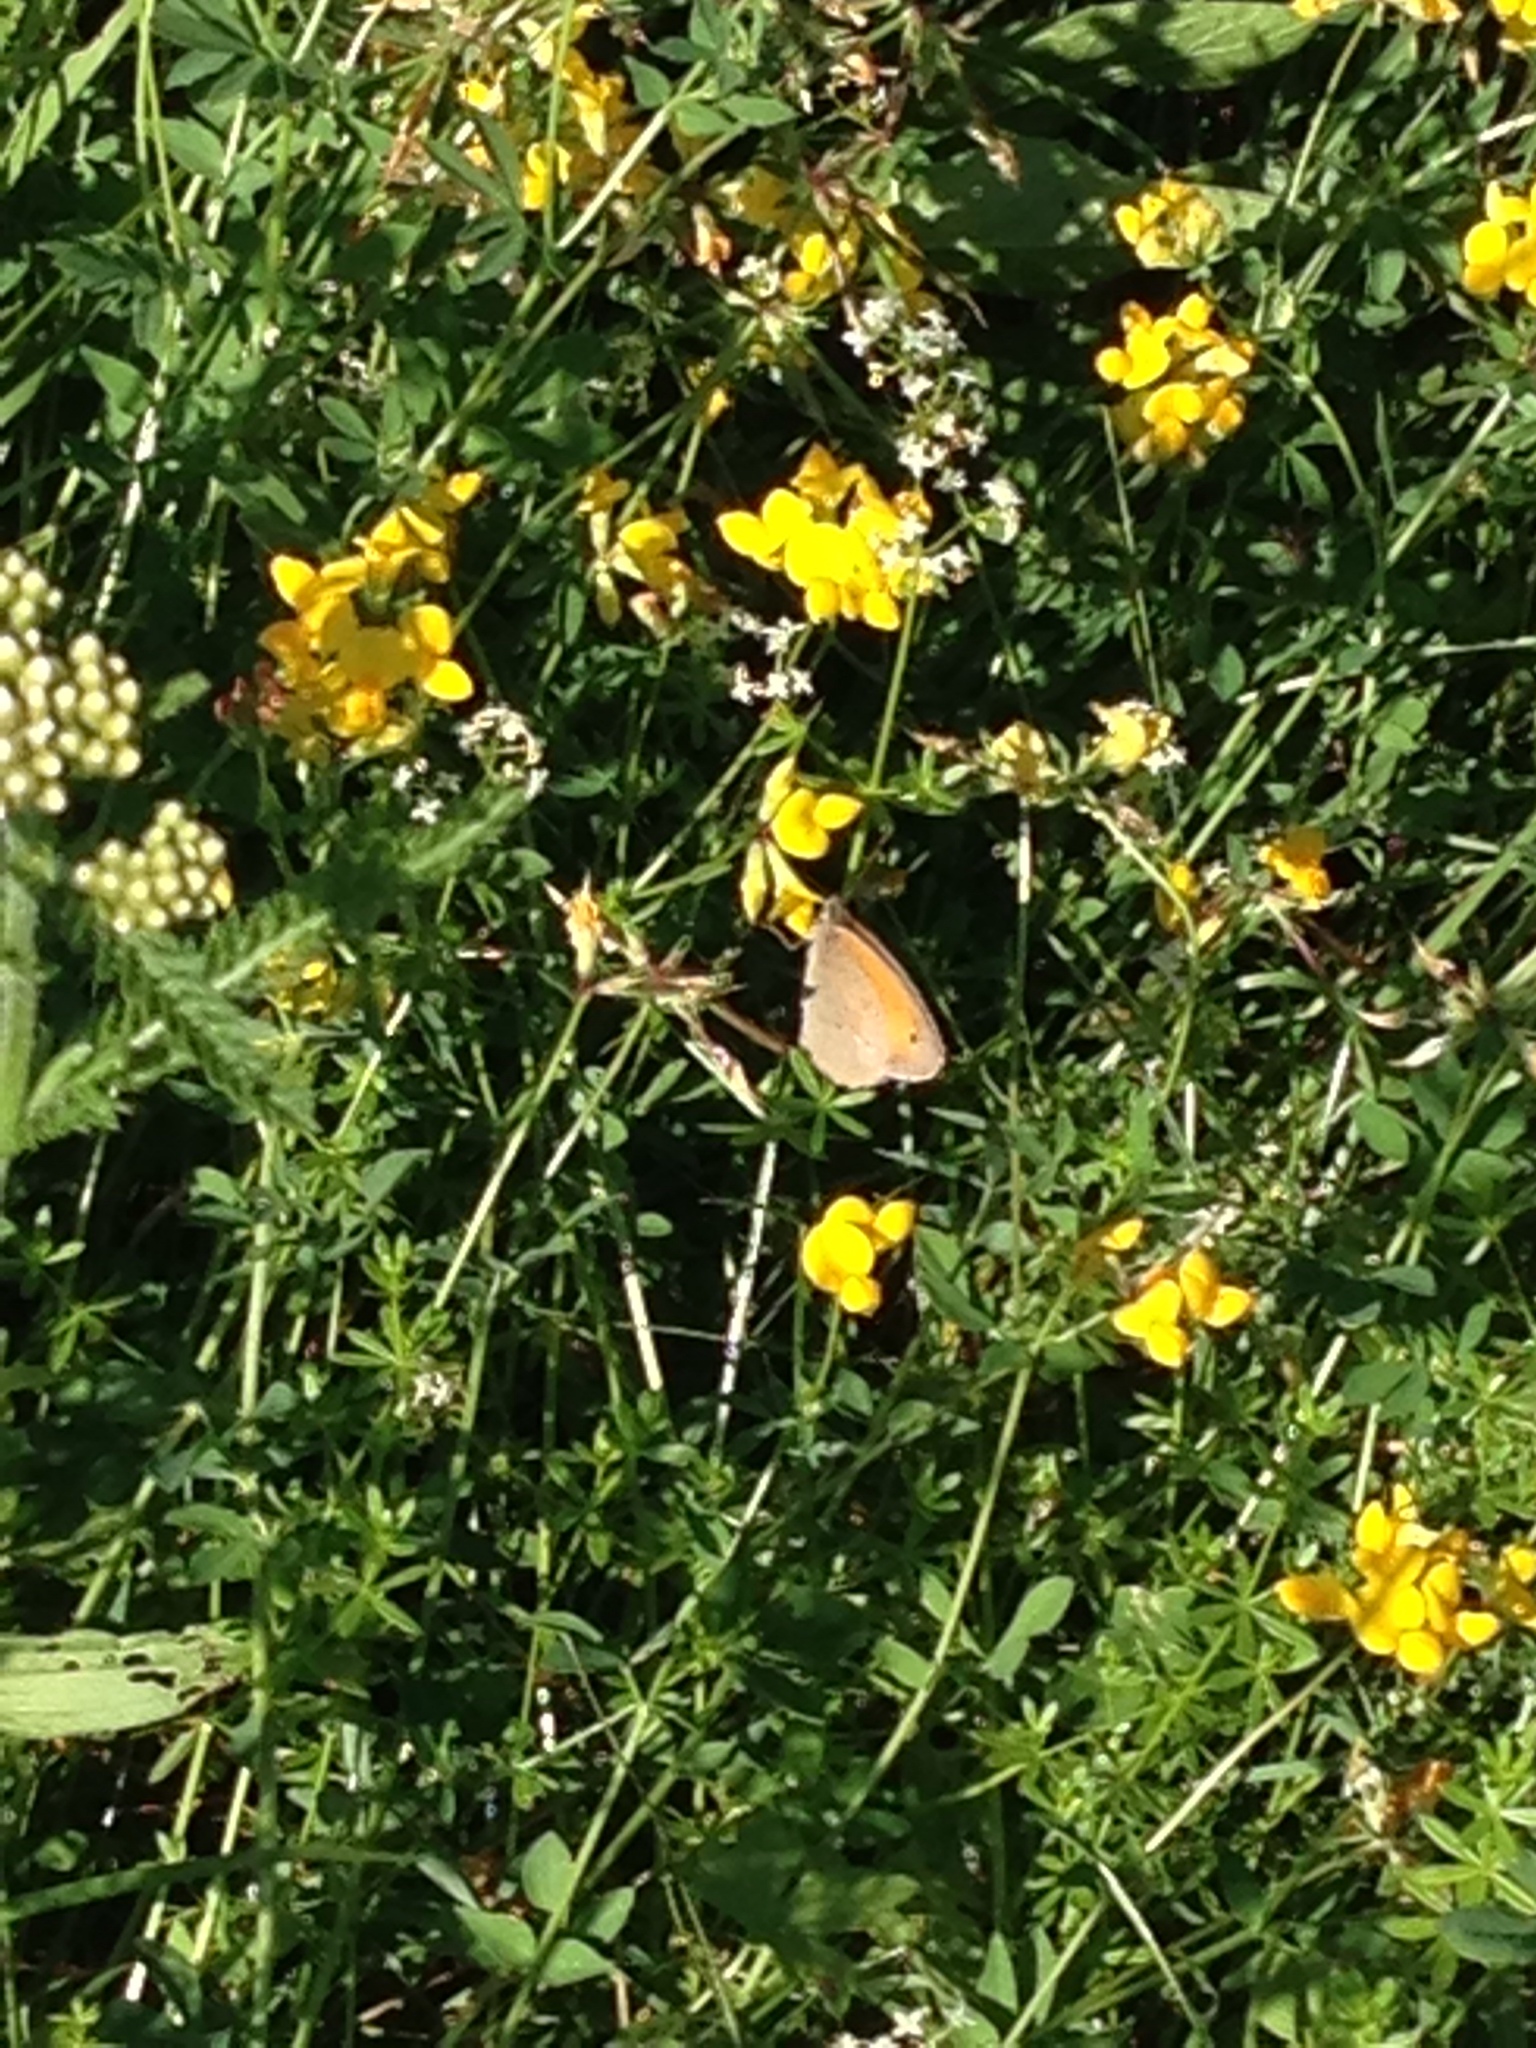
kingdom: Animalia
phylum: Arthropoda
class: Insecta
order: Lepidoptera
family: Nymphalidae
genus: Maniola
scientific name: Maniola jurtina
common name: Meadow brown
